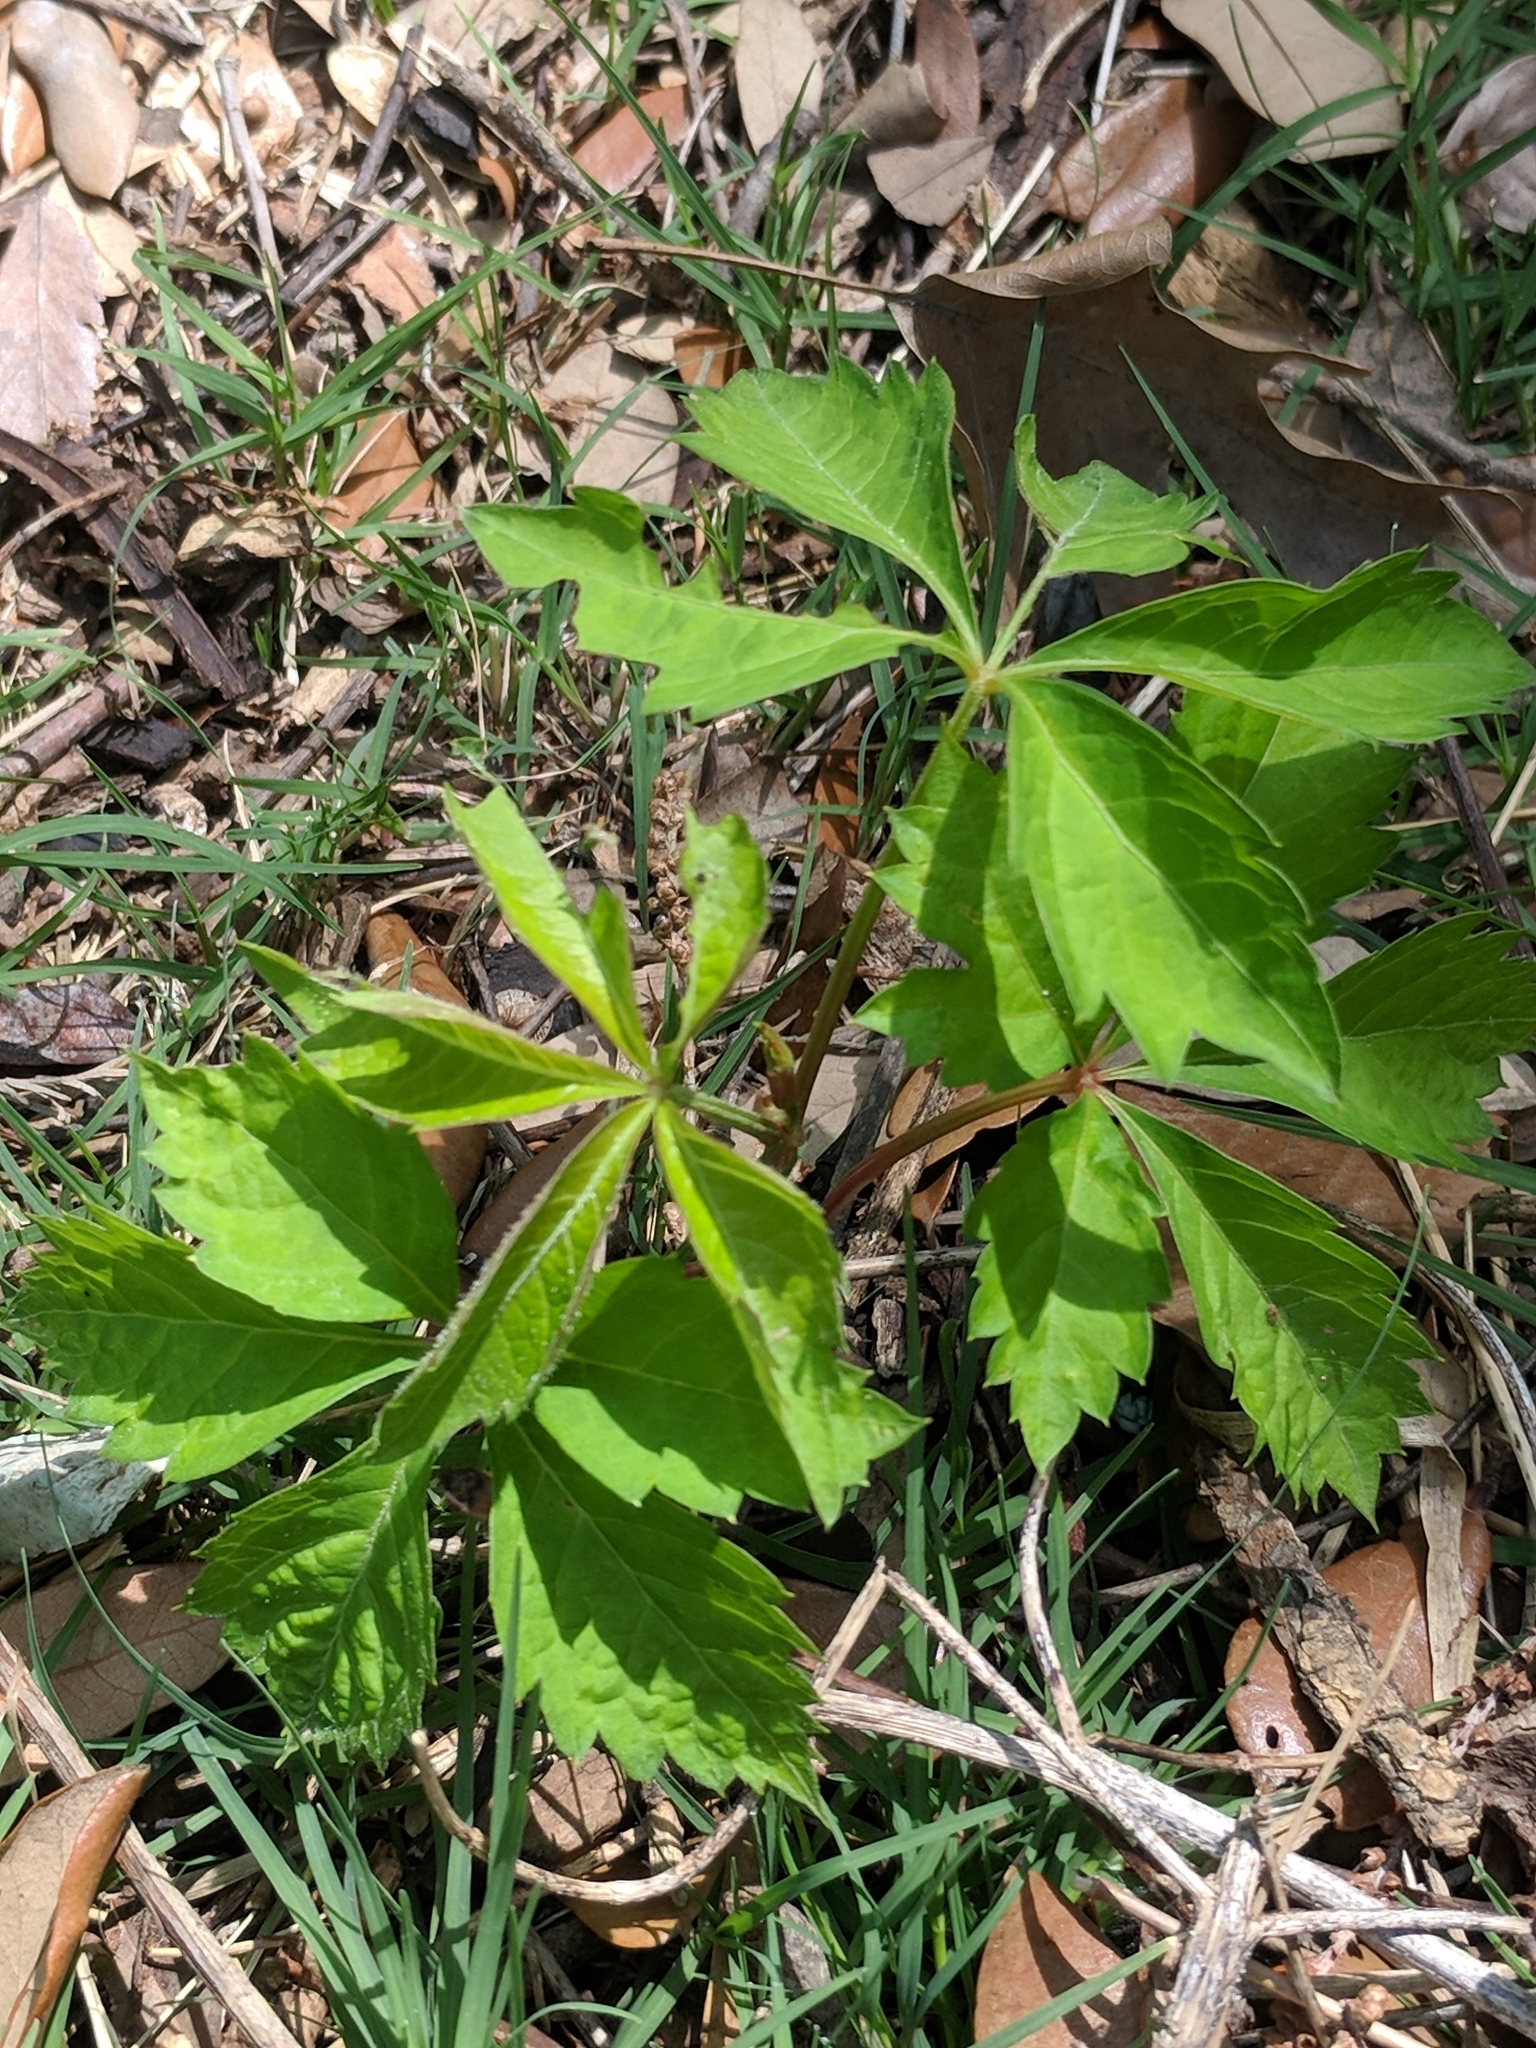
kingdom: Plantae
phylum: Tracheophyta
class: Magnoliopsida
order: Vitales
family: Vitaceae
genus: Parthenocissus
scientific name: Parthenocissus quinquefolia
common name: Virginia-creeper
